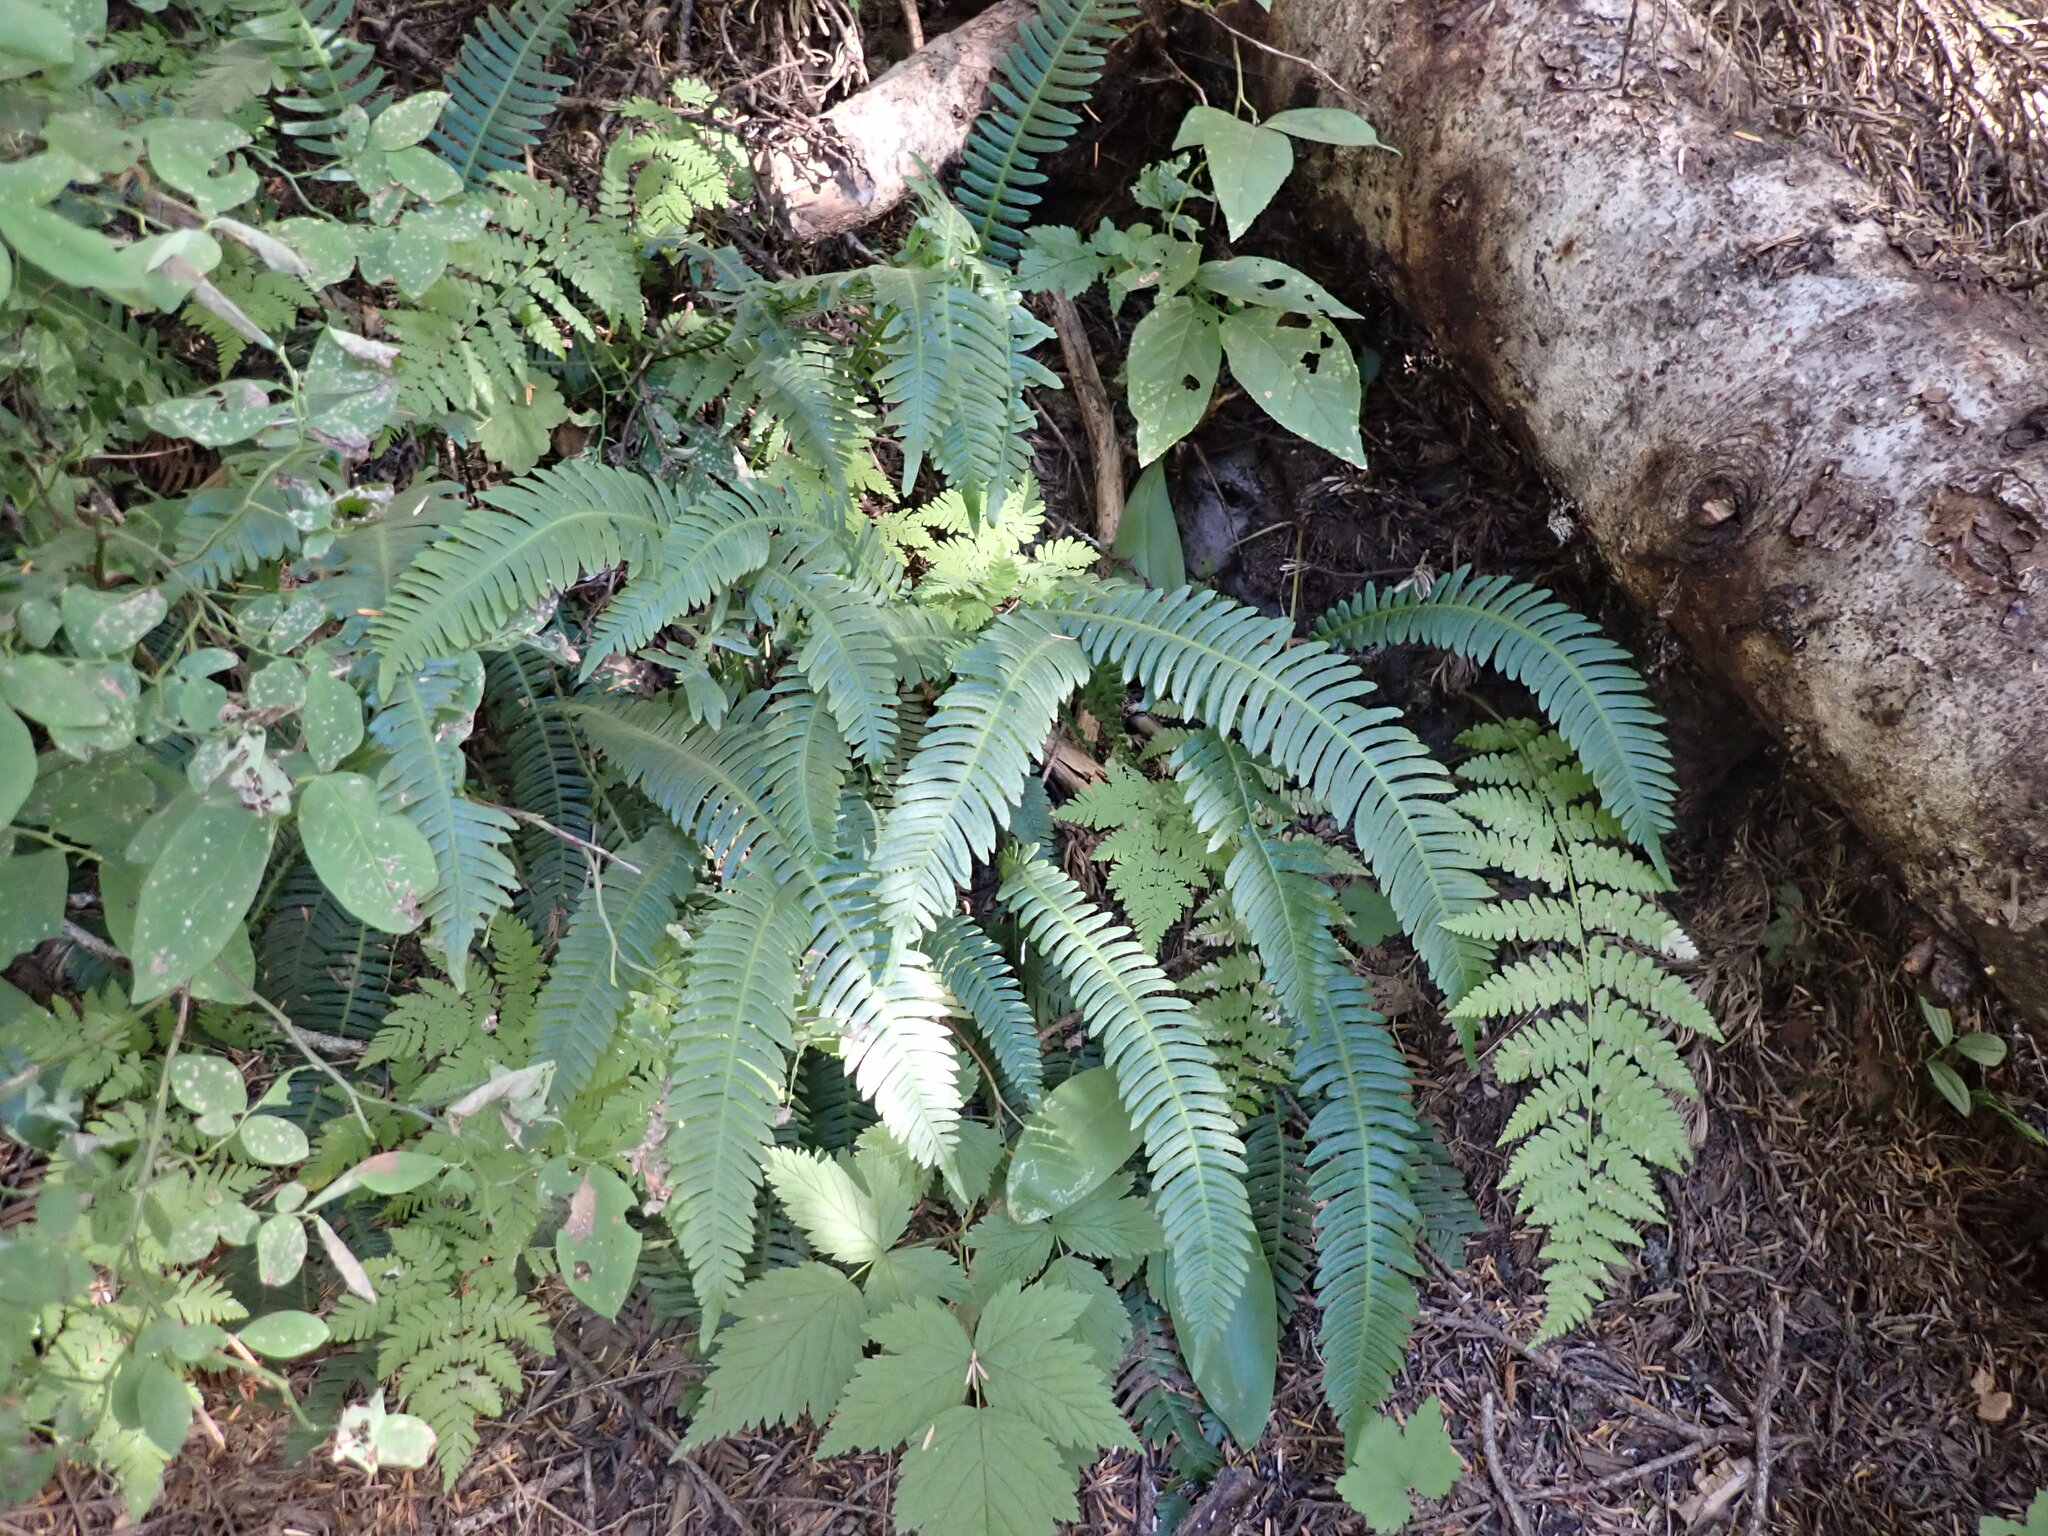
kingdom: Plantae
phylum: Tracheophyta
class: Polypodiopsida
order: Polypodiales
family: Blechnaceae
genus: Struthiopteris
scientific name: Struthiopteris spicant
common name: Deer fern
